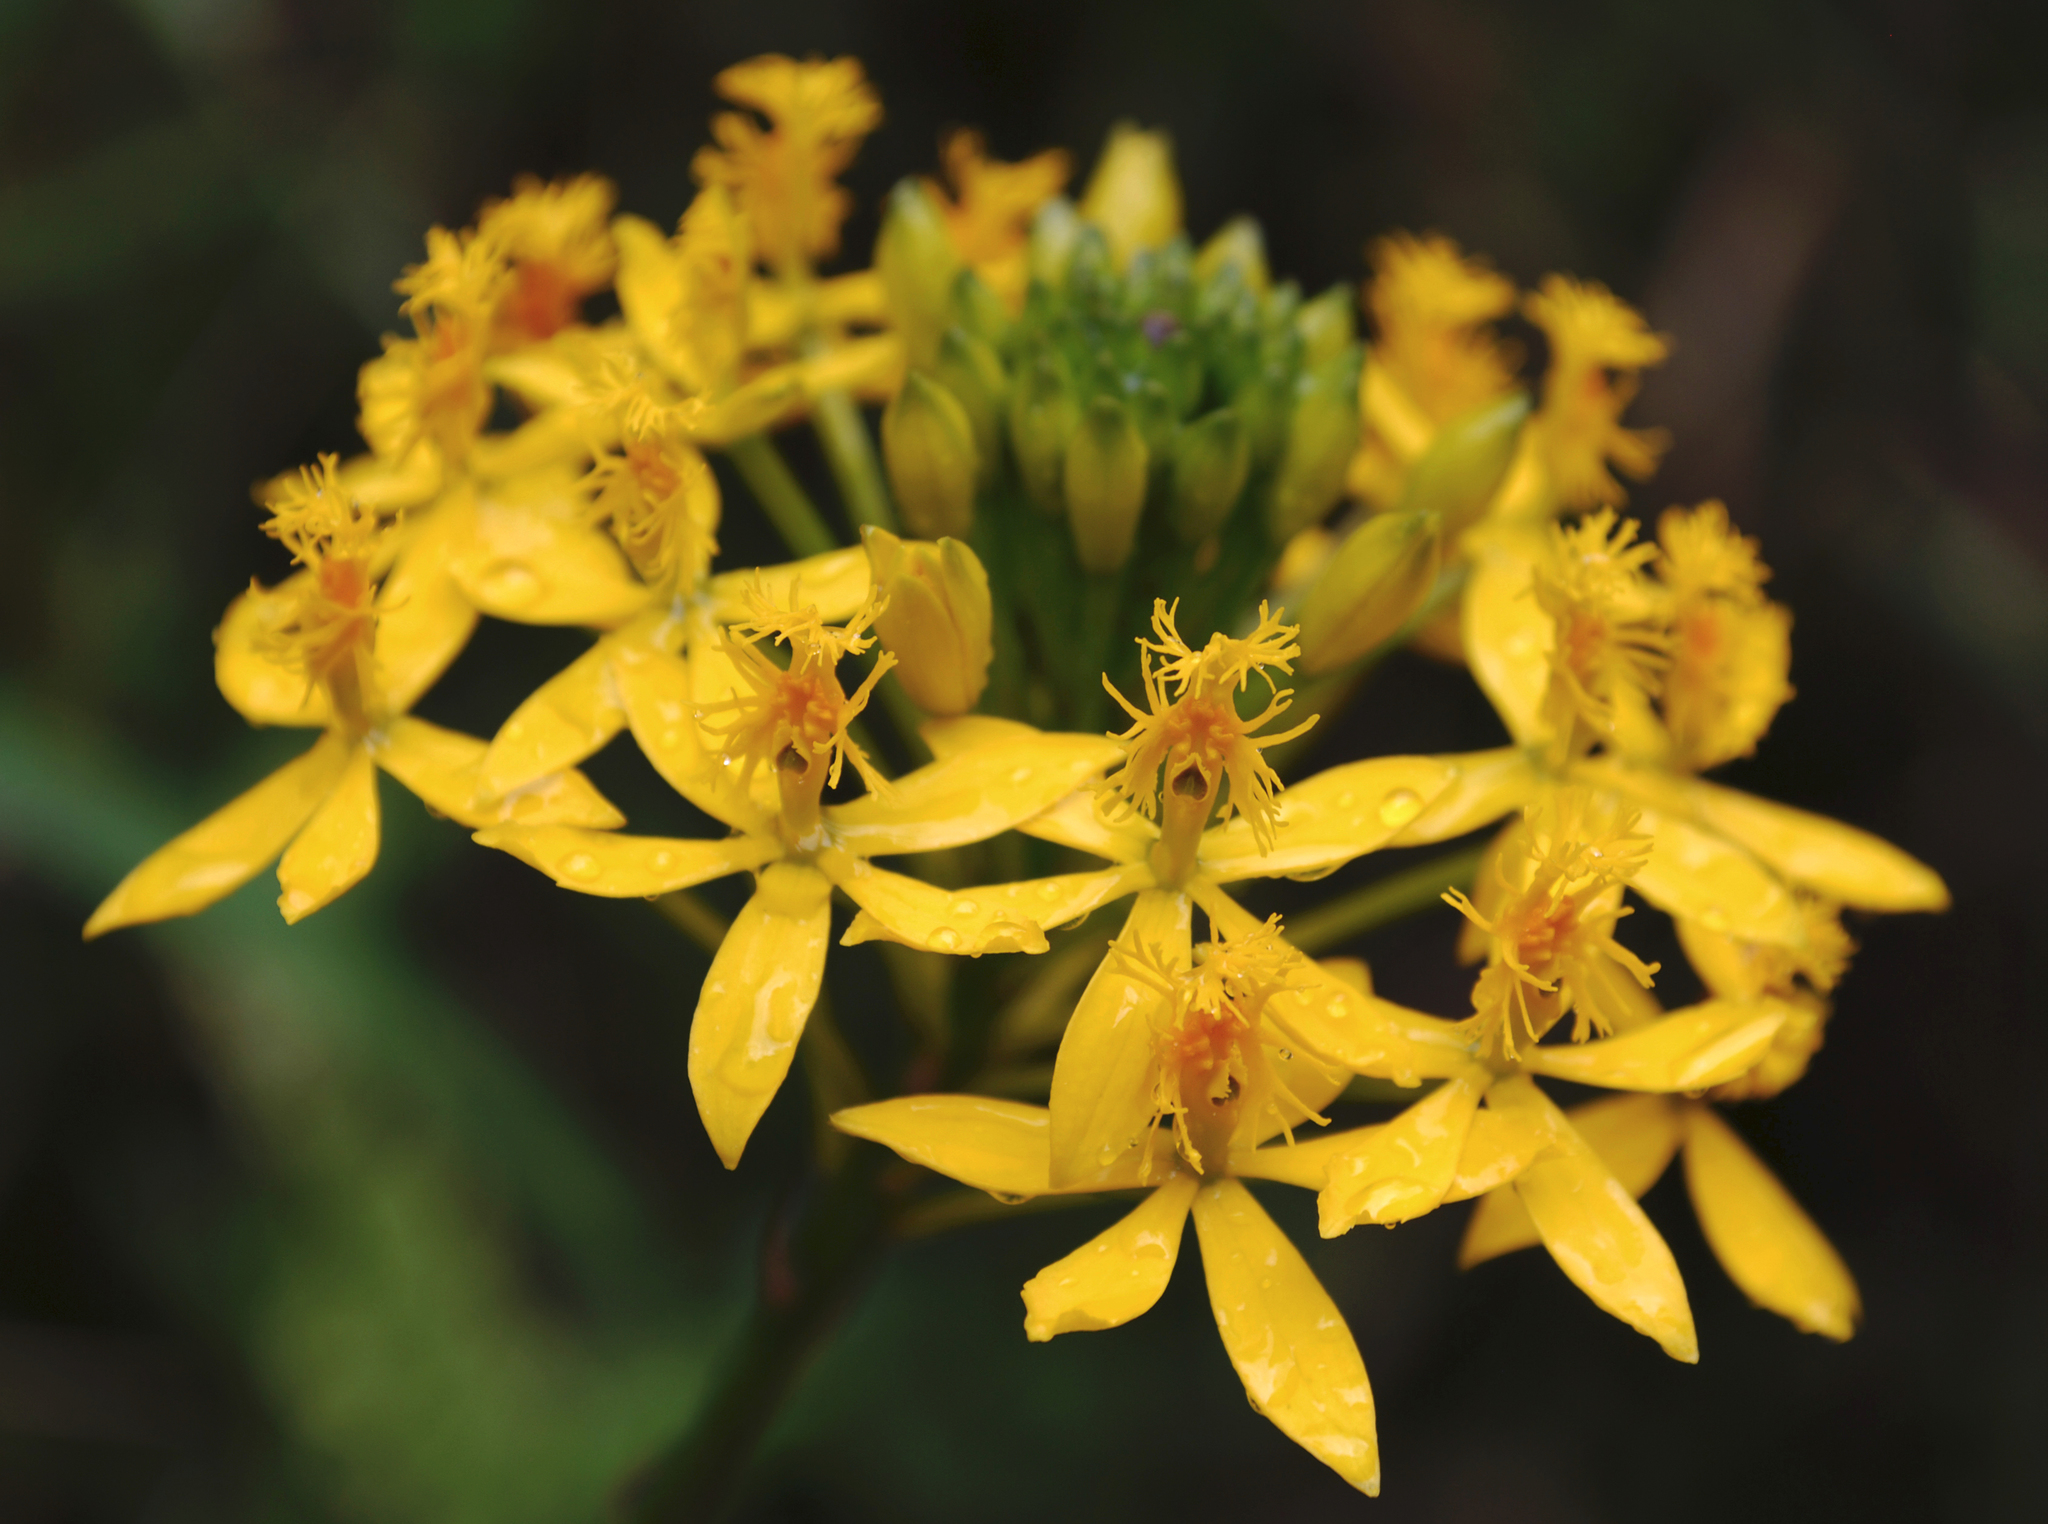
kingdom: Plantae
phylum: Tracheophyta
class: Liliopsida
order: Asparagales
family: Orchidaceae
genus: Epidendrum
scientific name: Epidendrum aura-usecheae
